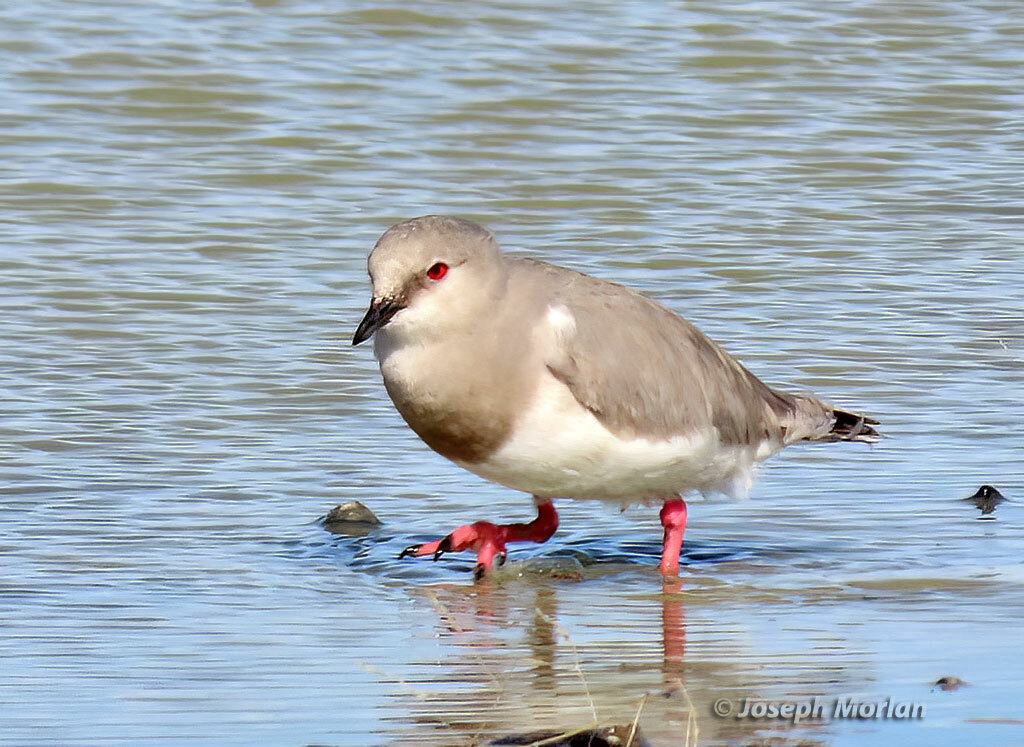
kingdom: Animalia
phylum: Chordata
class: Aves
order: Charadriiformes
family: Pluvianellidae
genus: Pluvianellus
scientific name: Pluvianellus socialis
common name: Magellanic plover
